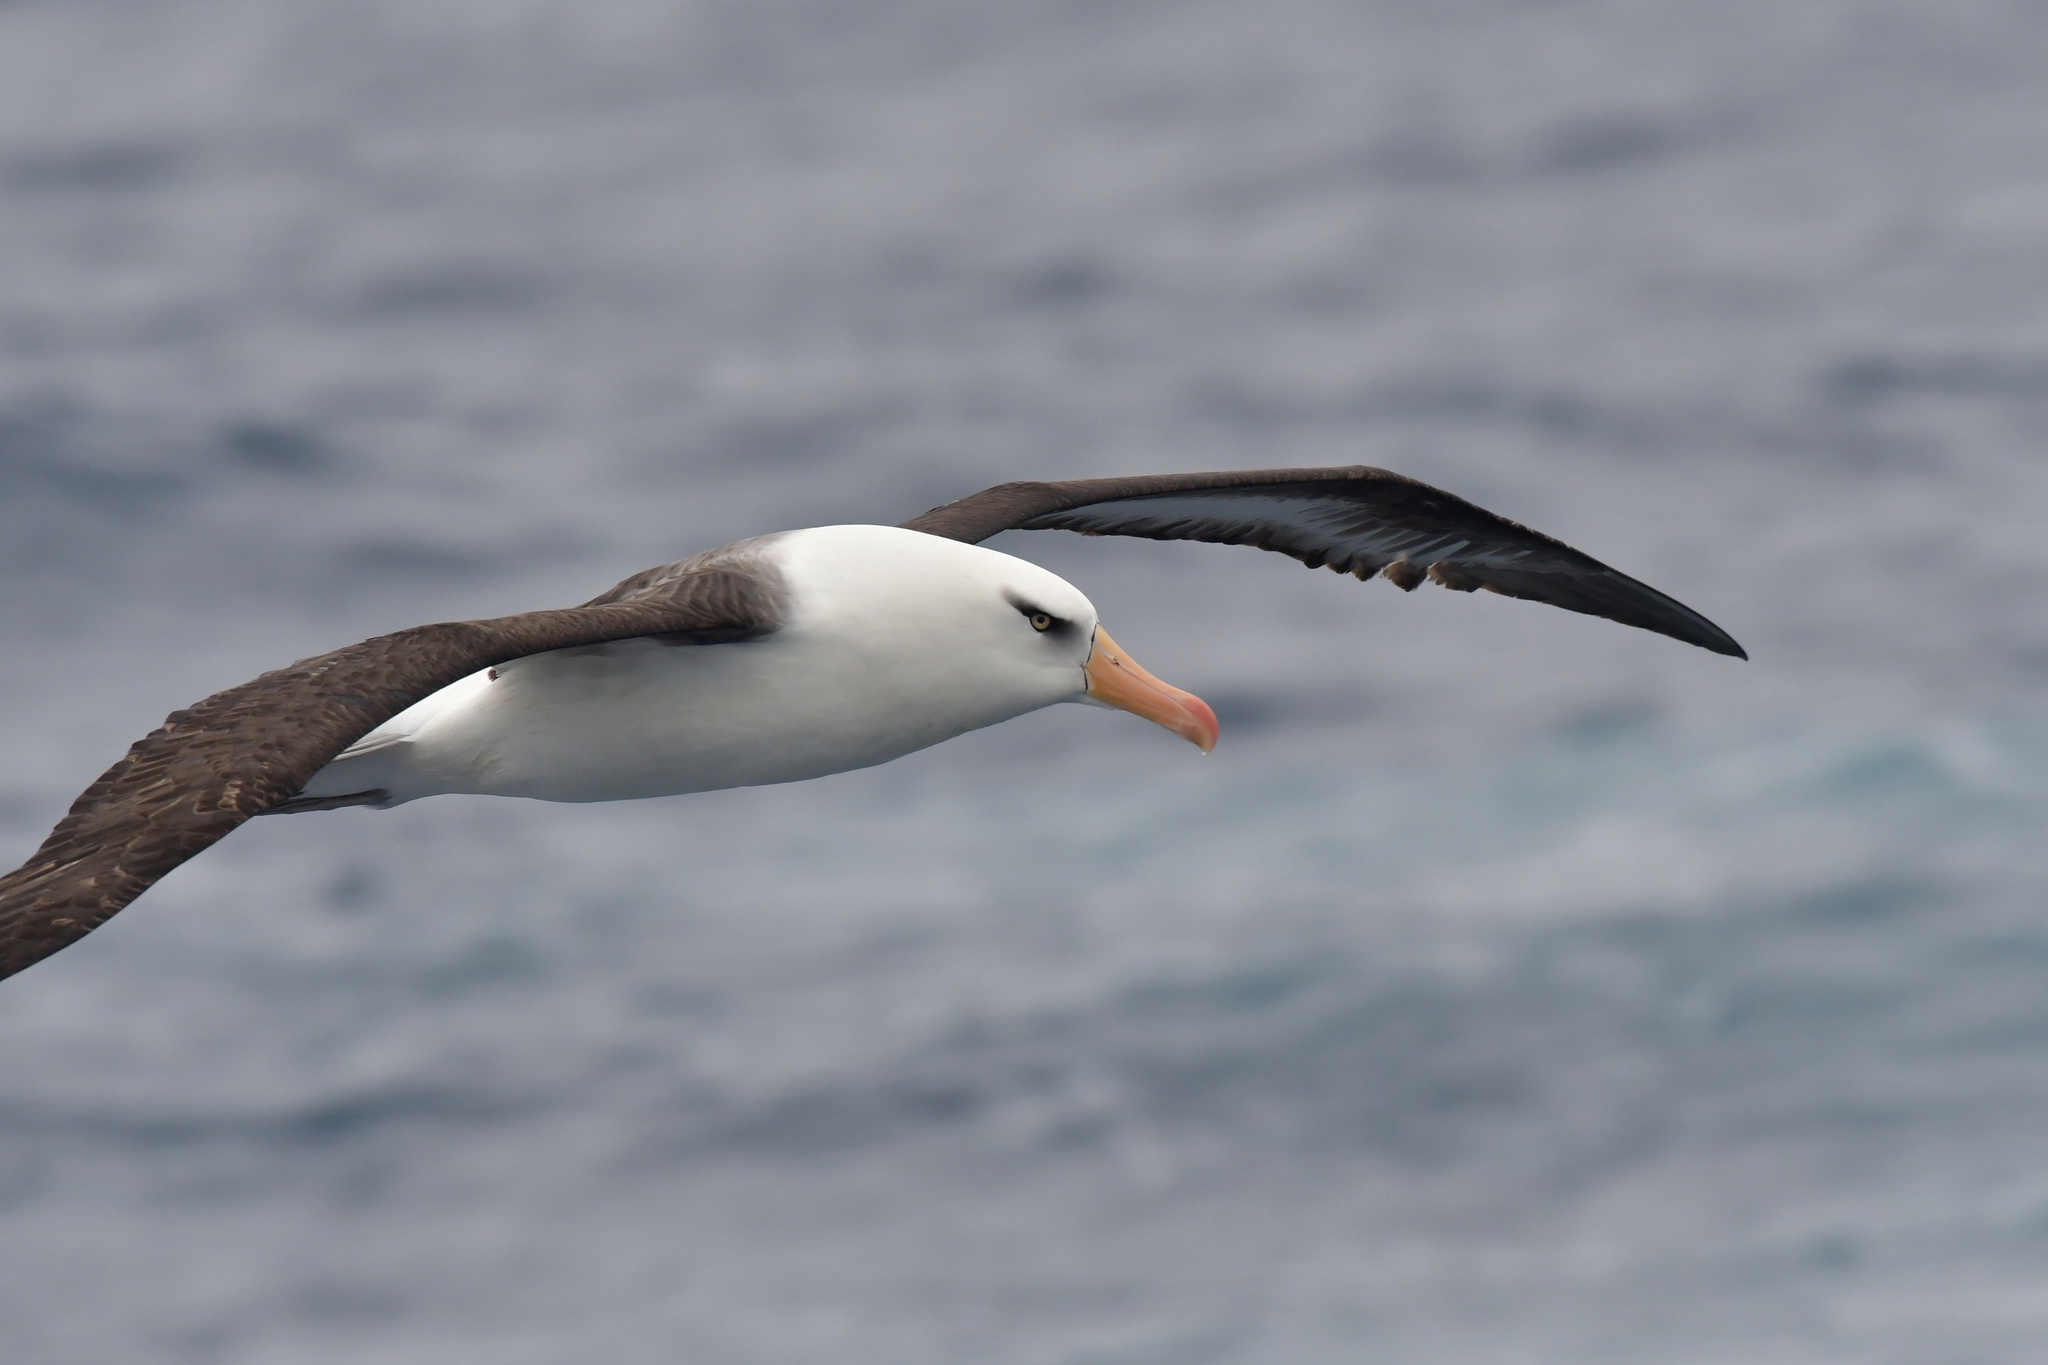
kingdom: Animalia
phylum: Chordata
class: Aves
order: Procellariiformes
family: Diomedeidae
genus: Thalassarche
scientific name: Thalassarche impavida
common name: Campbell albatross
